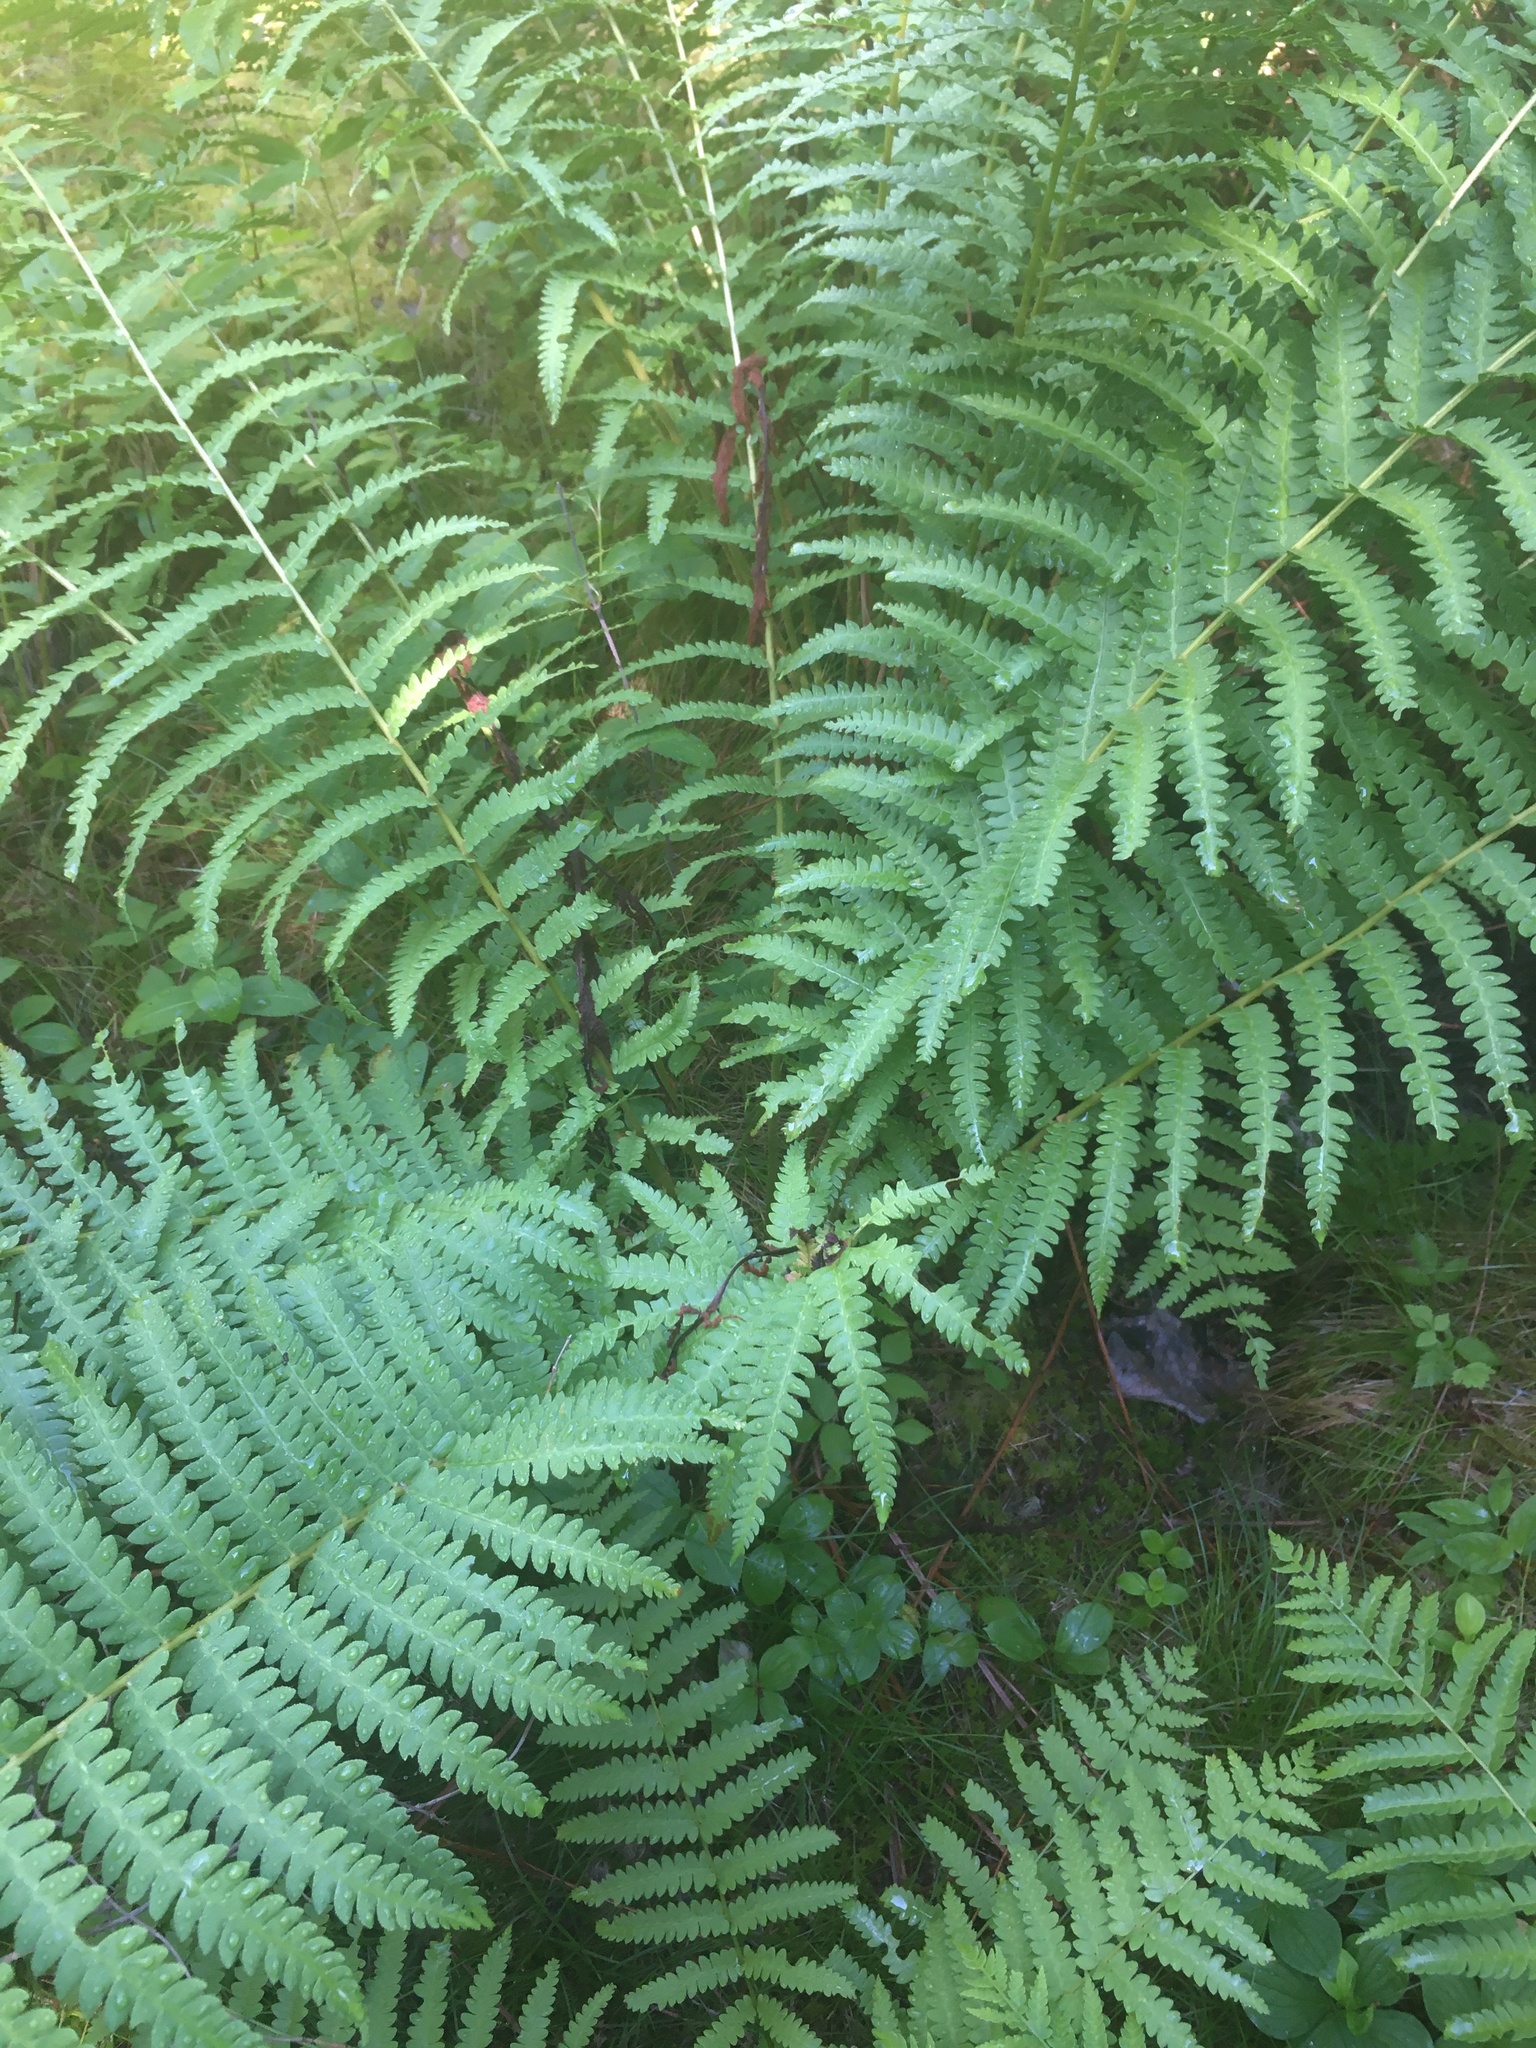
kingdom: Plantae
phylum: Tracheophyta
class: Polypodiopsida
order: Osmundales
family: Osmundaceae
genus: Osmundastrum
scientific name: Osmundastrum cinnamomeum
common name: Cinnamon fern
